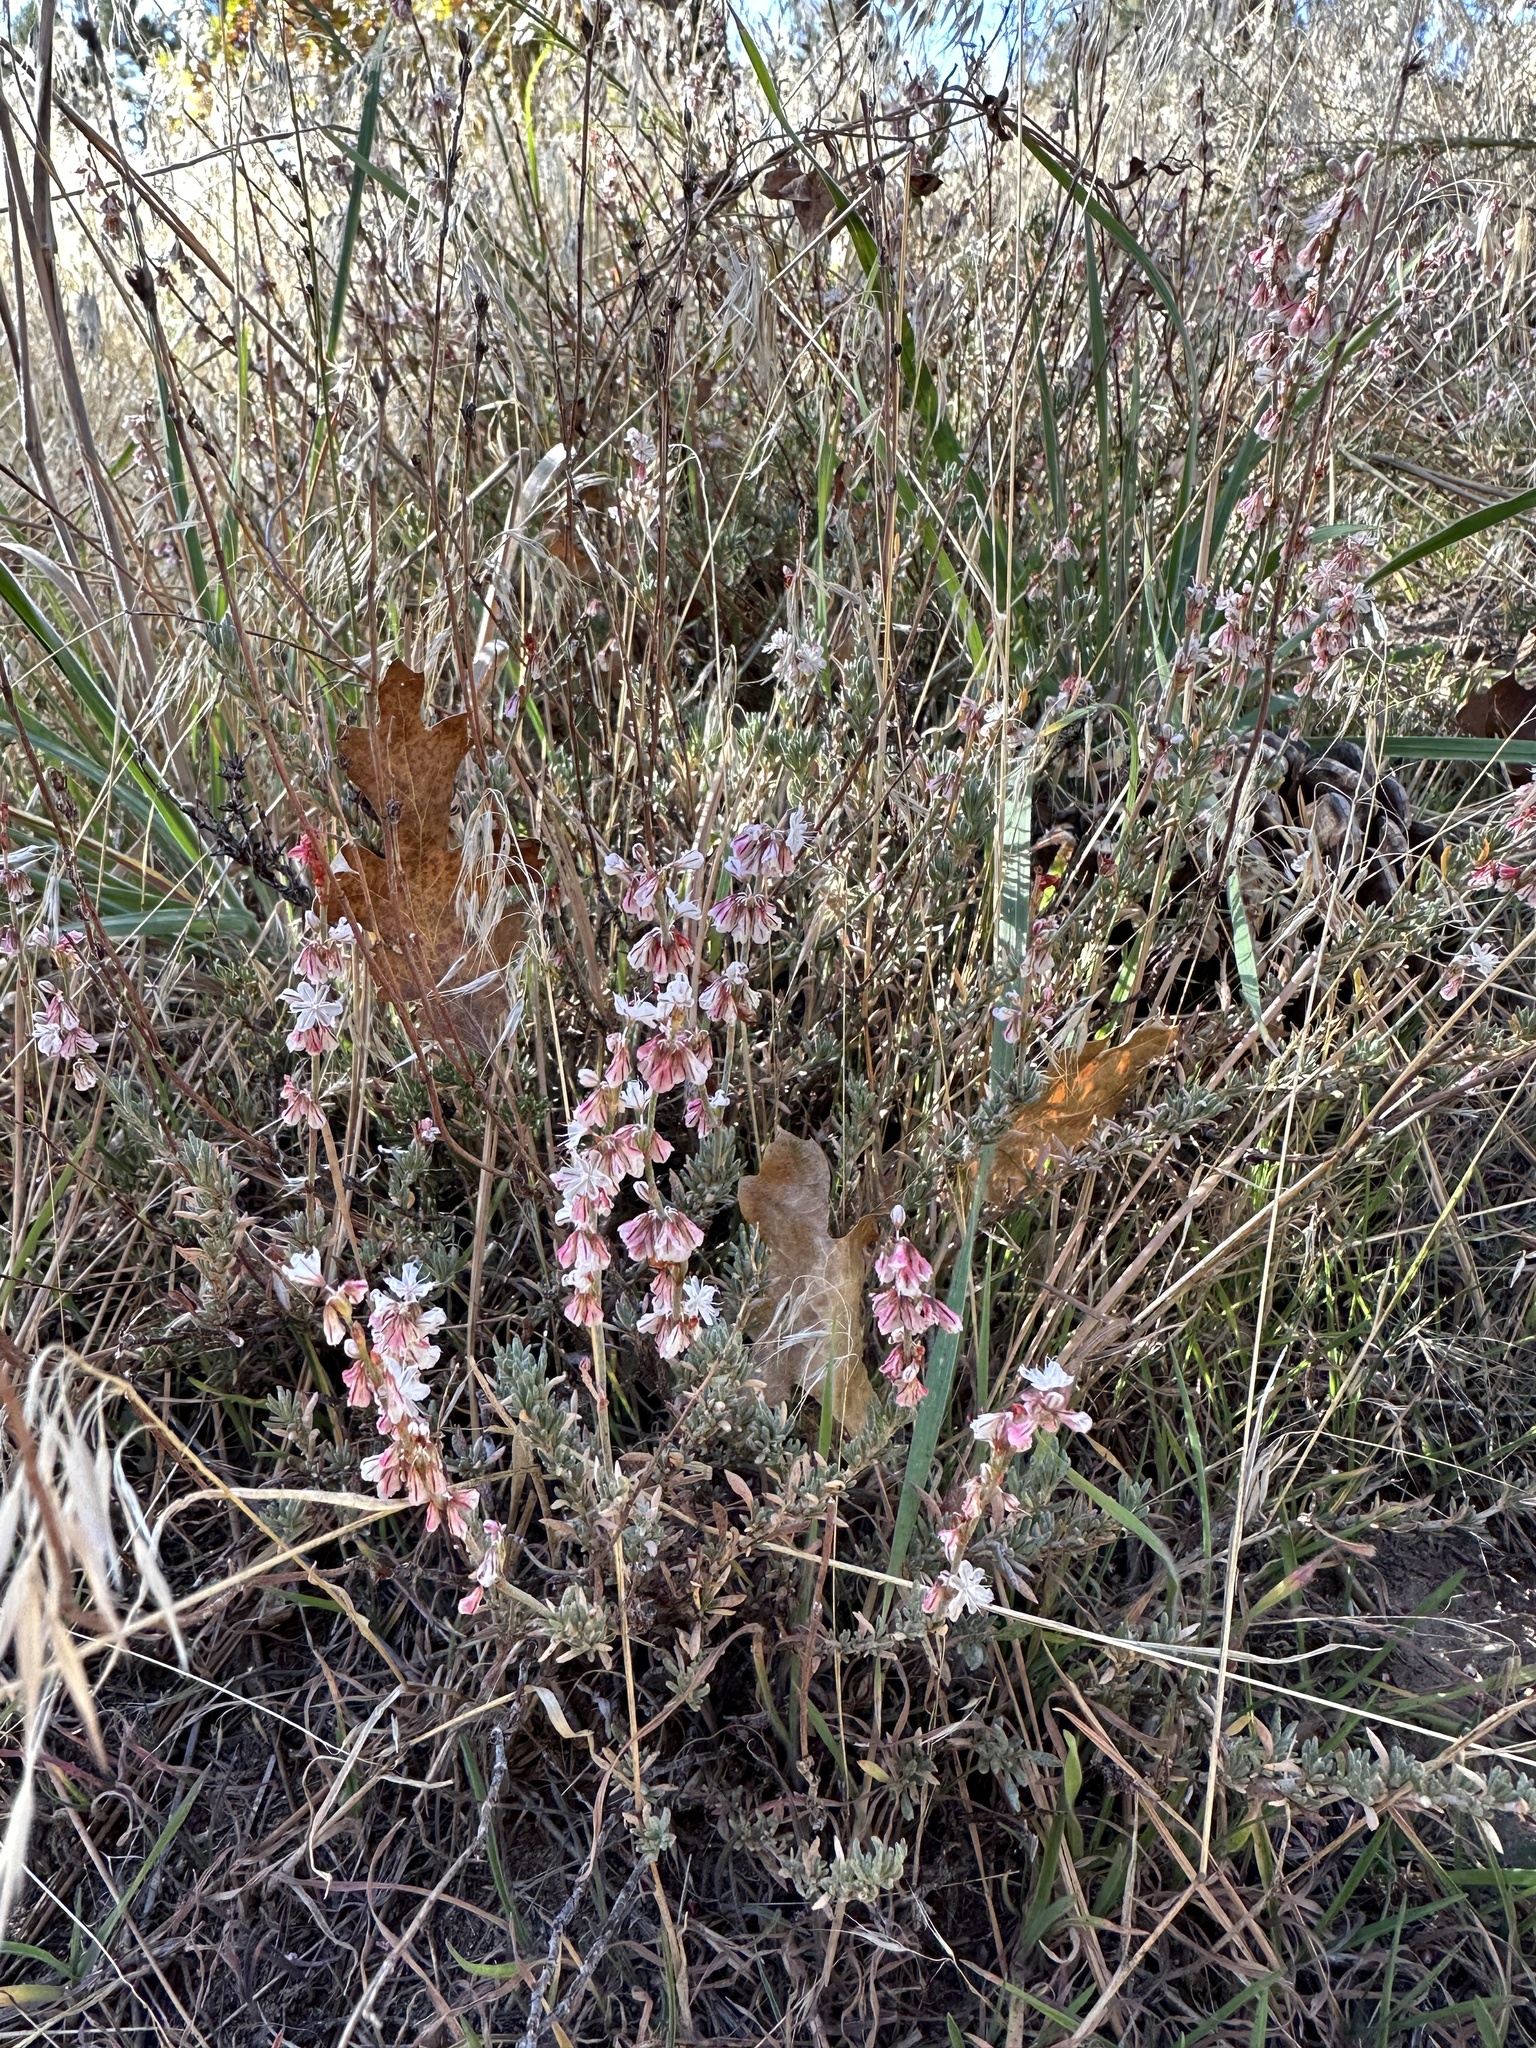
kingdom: Plantae
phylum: Tracheophyta
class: Magnoliopsida
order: Caryophyllales
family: Polygonaceae
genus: Eriogonum
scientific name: Eriogonum wrightii
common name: Bastard-sage
